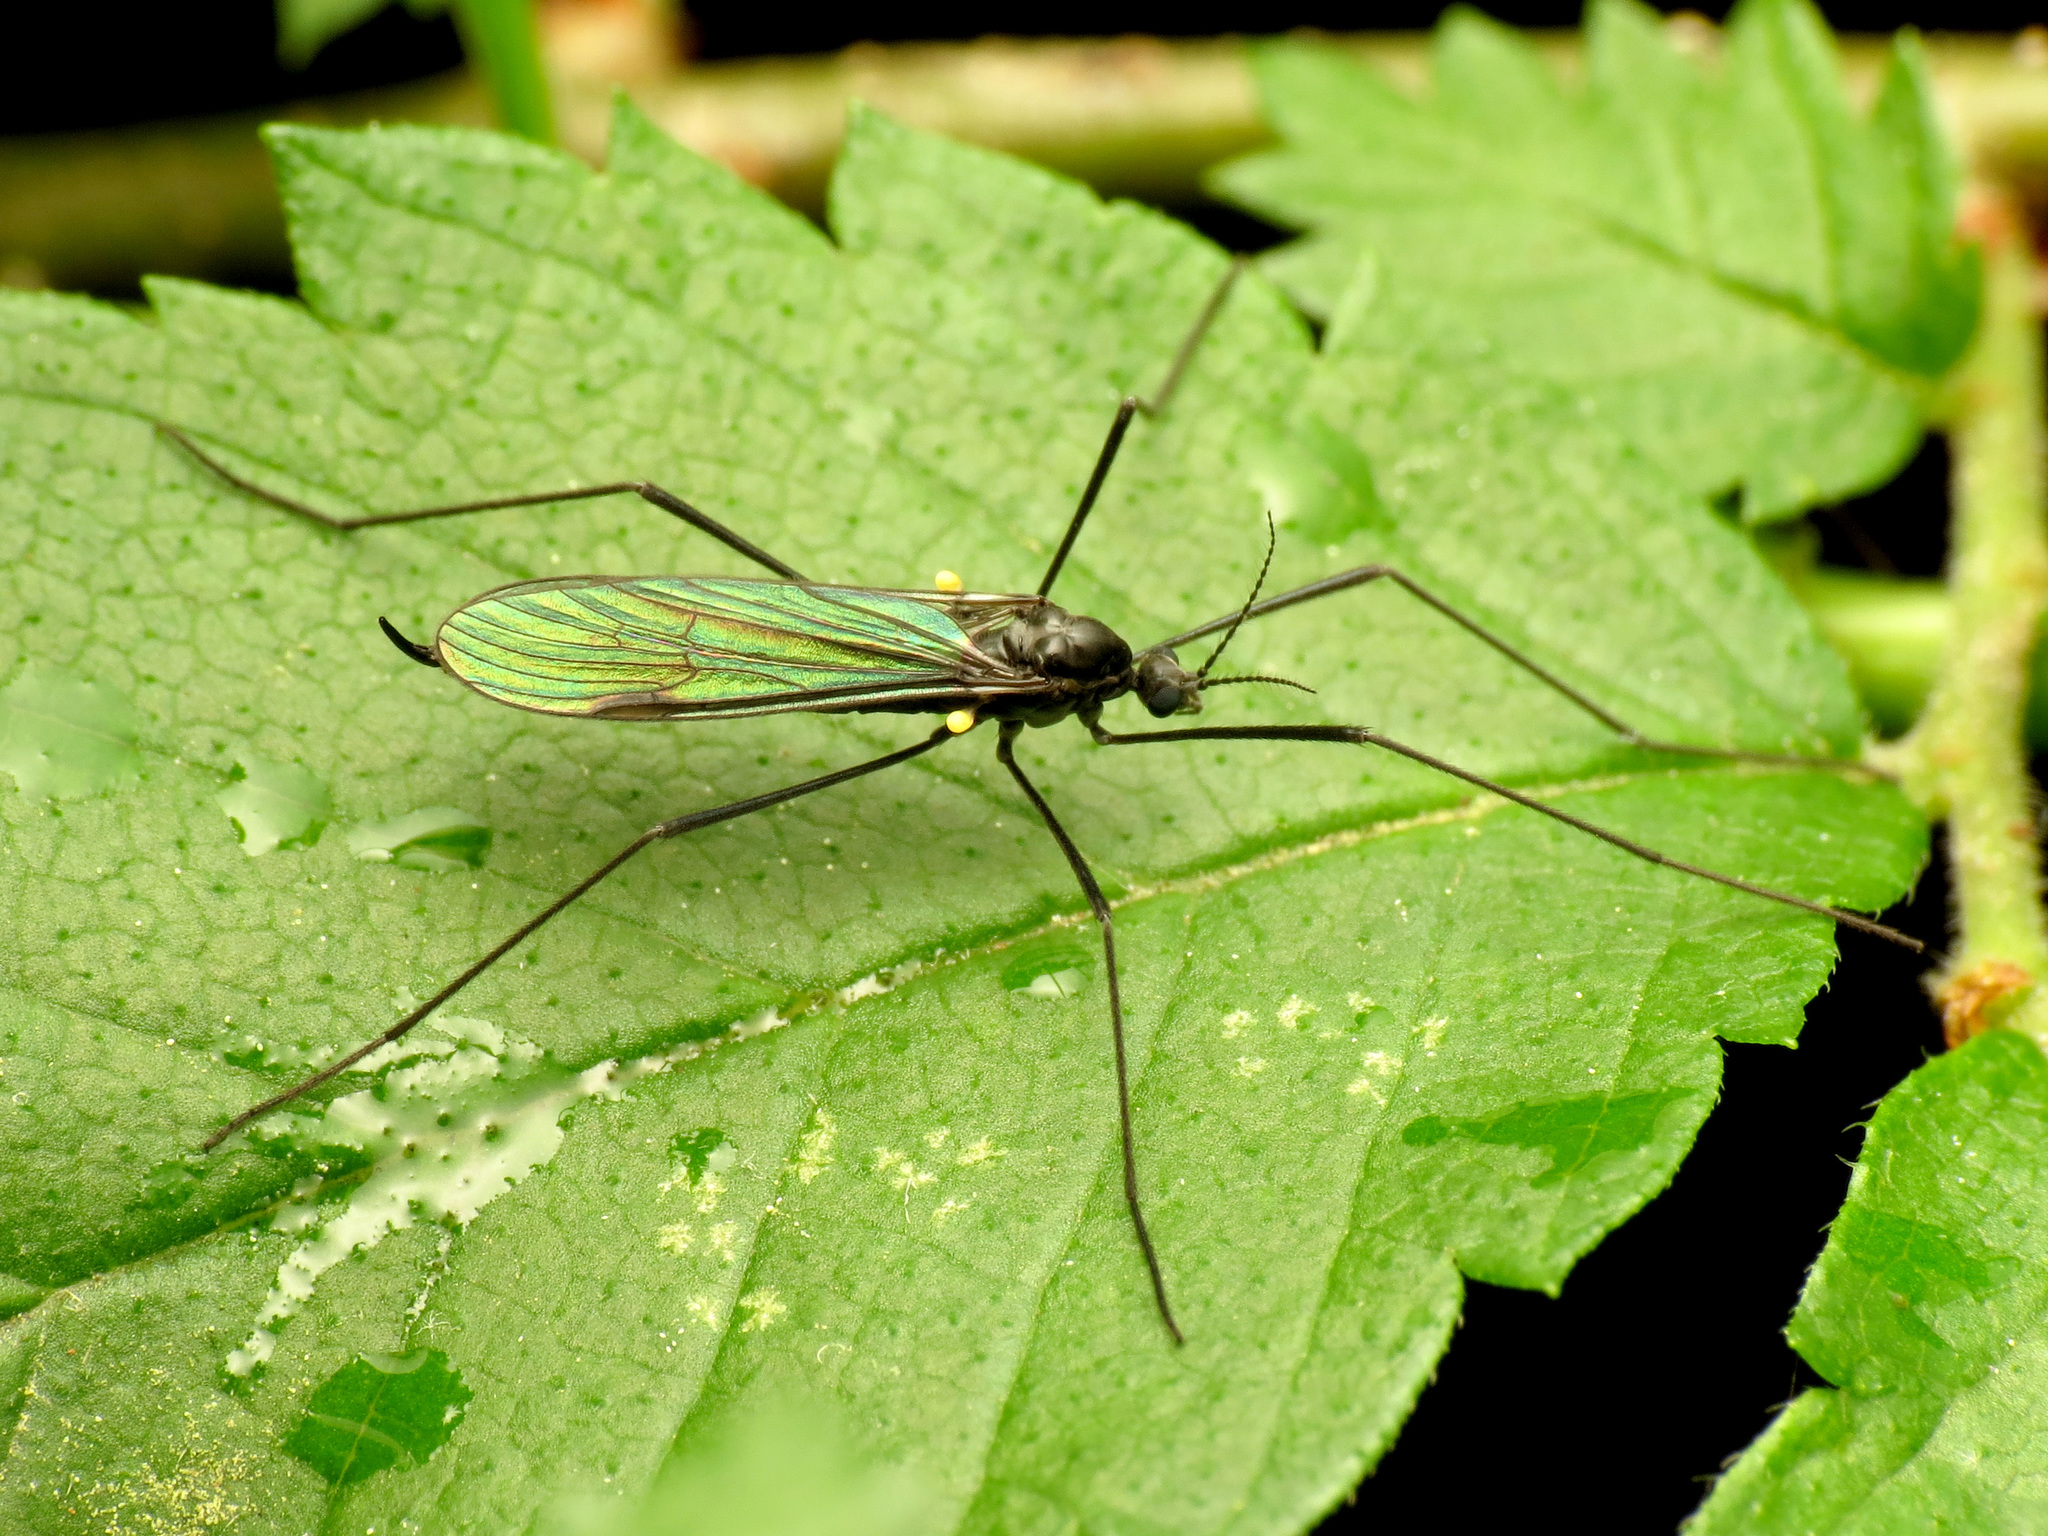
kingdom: Animalia
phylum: Arthropoda
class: Insecta
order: Diptera
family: Limoniidae
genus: Gnophomyia
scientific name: Gnophomyia tristissima
